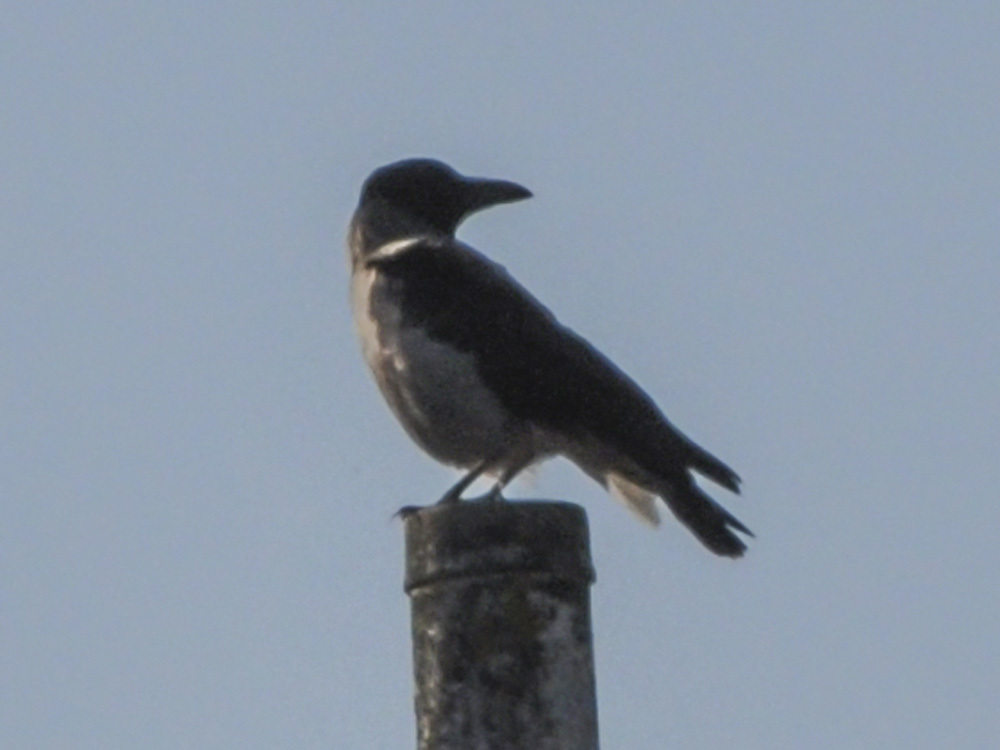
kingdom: Animalia
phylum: Chordata
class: Aves
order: Passeriformes
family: Corvidae
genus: Corvus
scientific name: Corvus cornix
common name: Hooded crow
